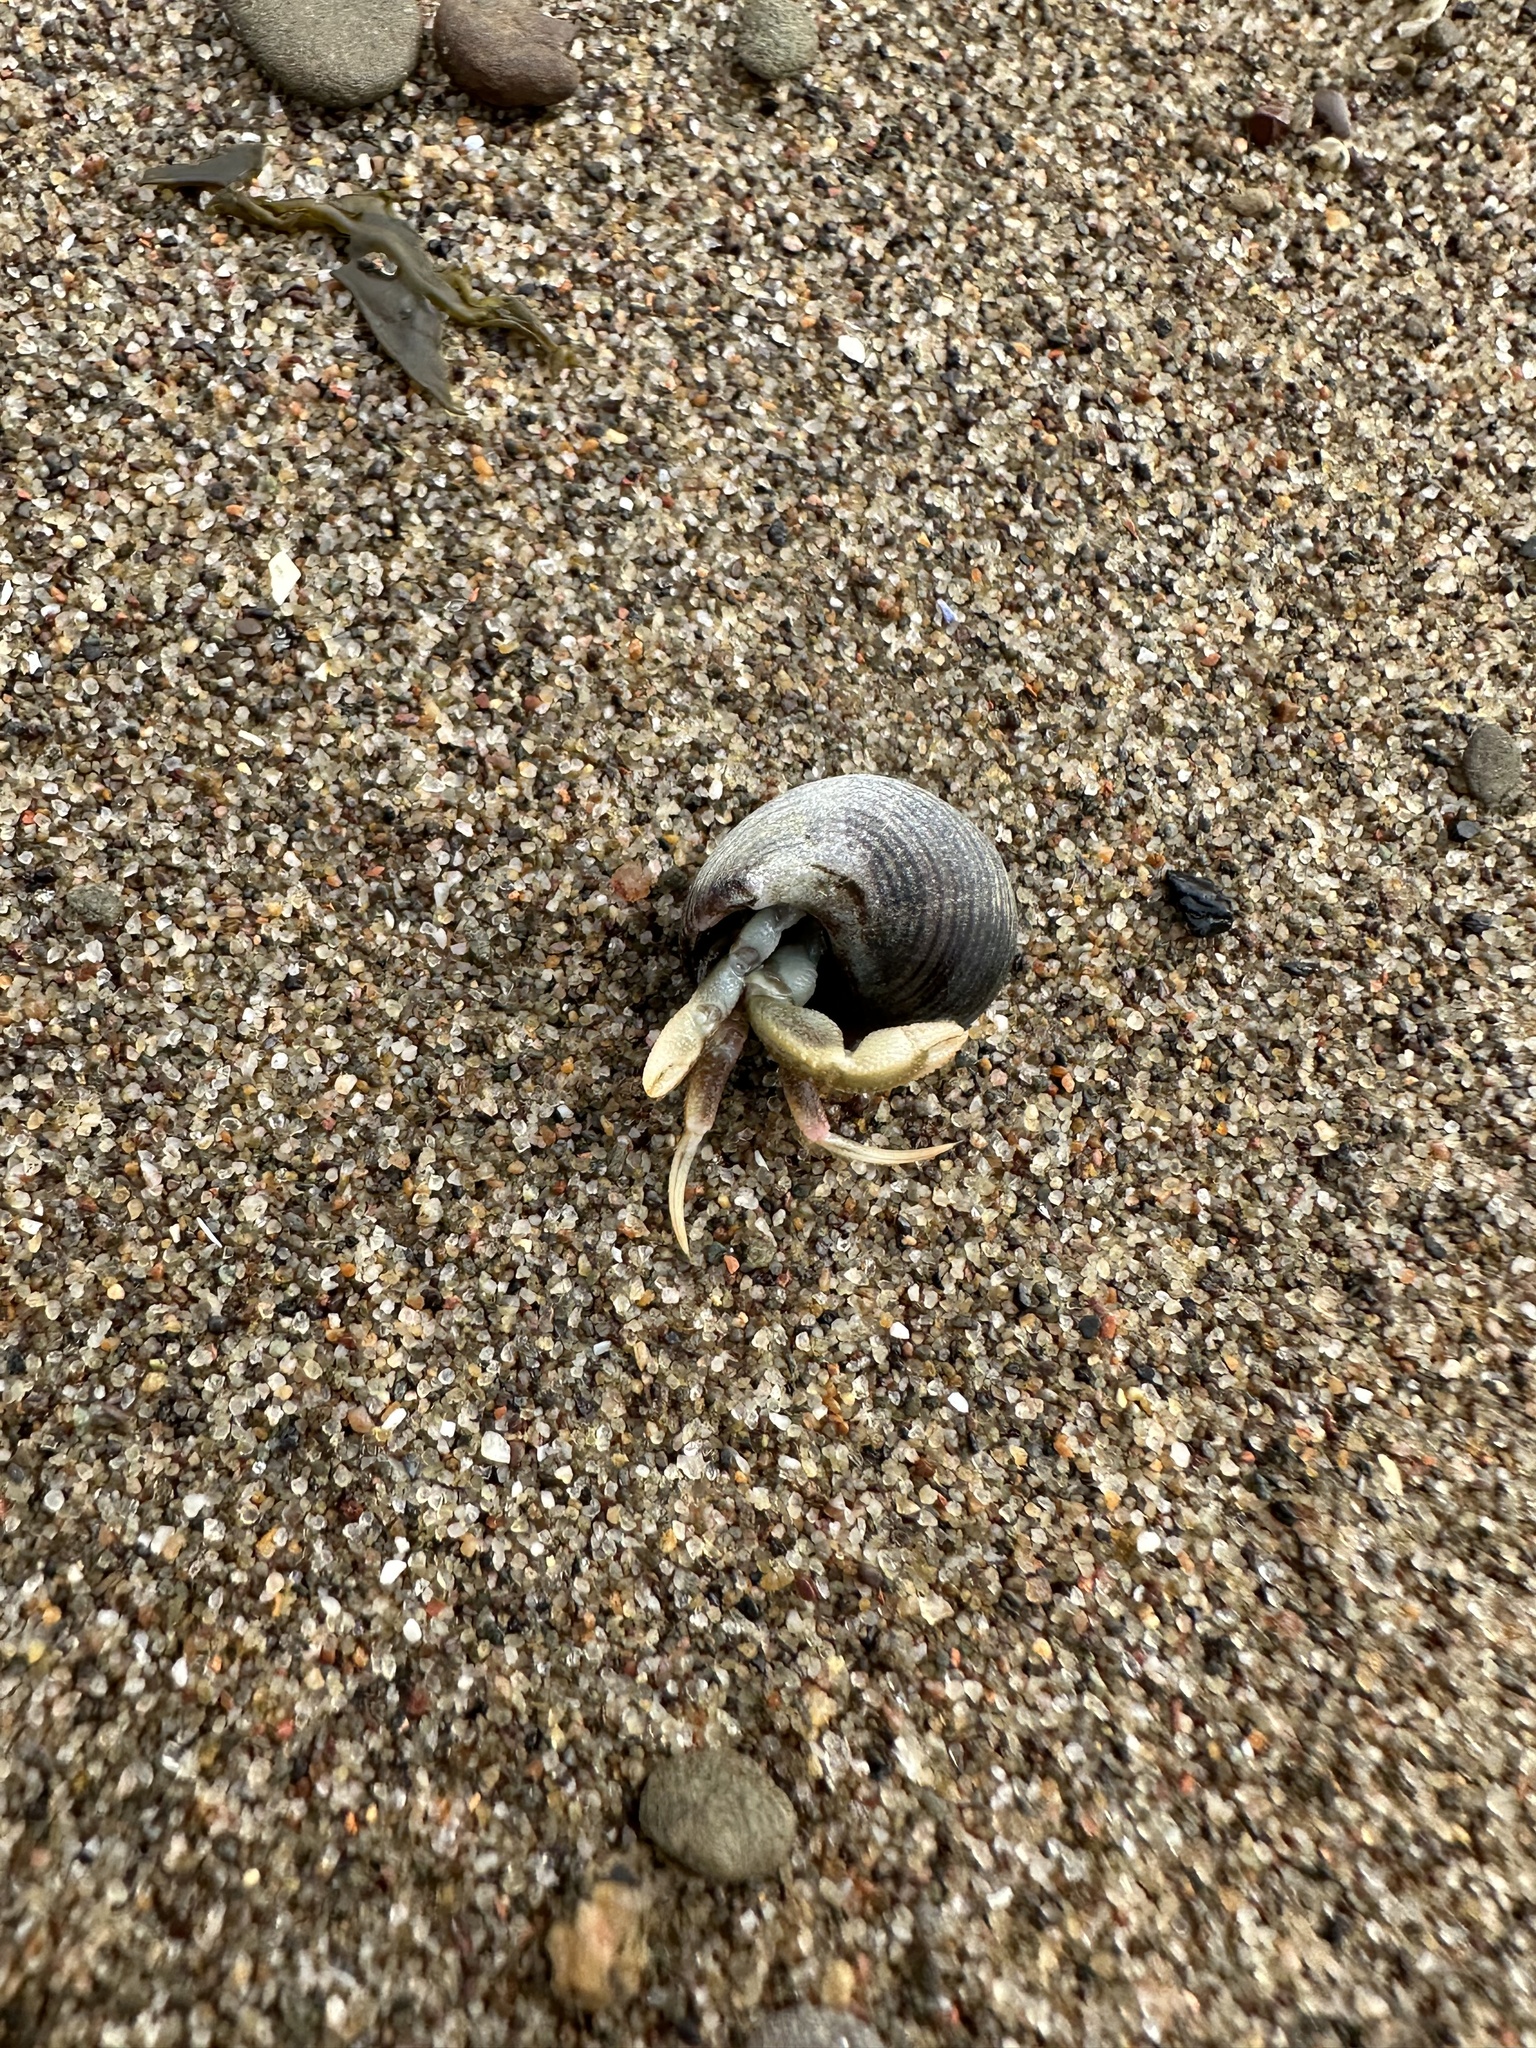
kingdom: Animalia
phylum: Arthropoda
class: Malacostraca
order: Decapoda
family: Paguridae
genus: Pagurus
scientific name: Pagurus longicarpus
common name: Long-armed hermit crab
